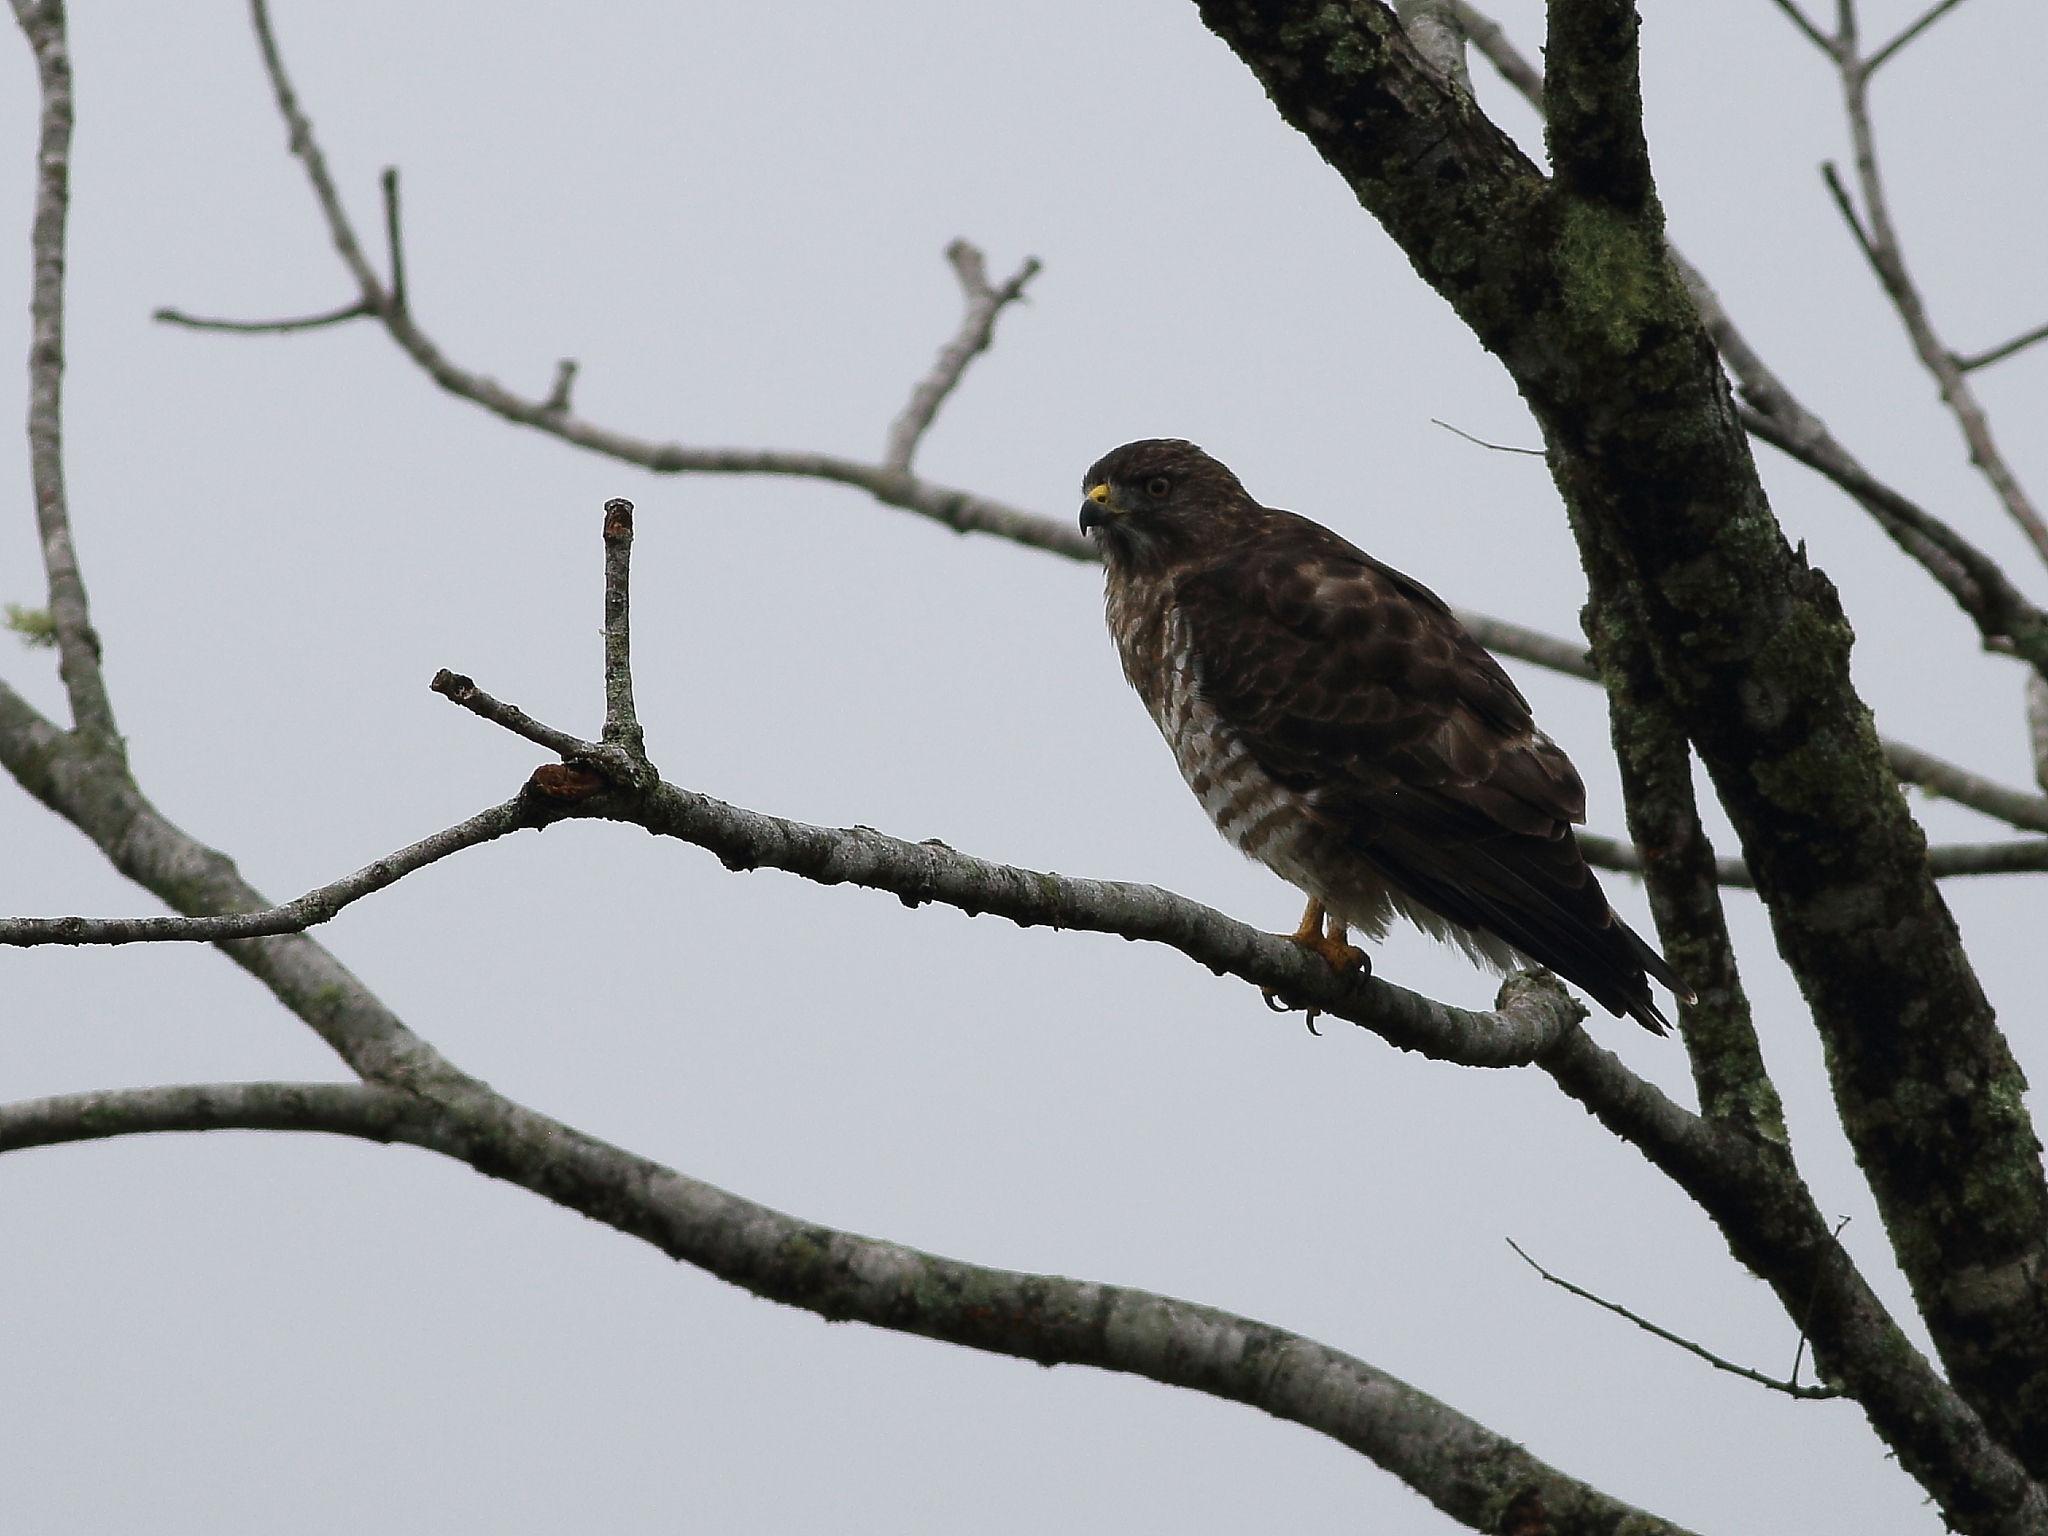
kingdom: Animalia
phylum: Chordata
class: Aves
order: Accipitriformes
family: Accipitridae
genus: Buteo
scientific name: Buteo platypterus
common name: Broad-winged hawk
